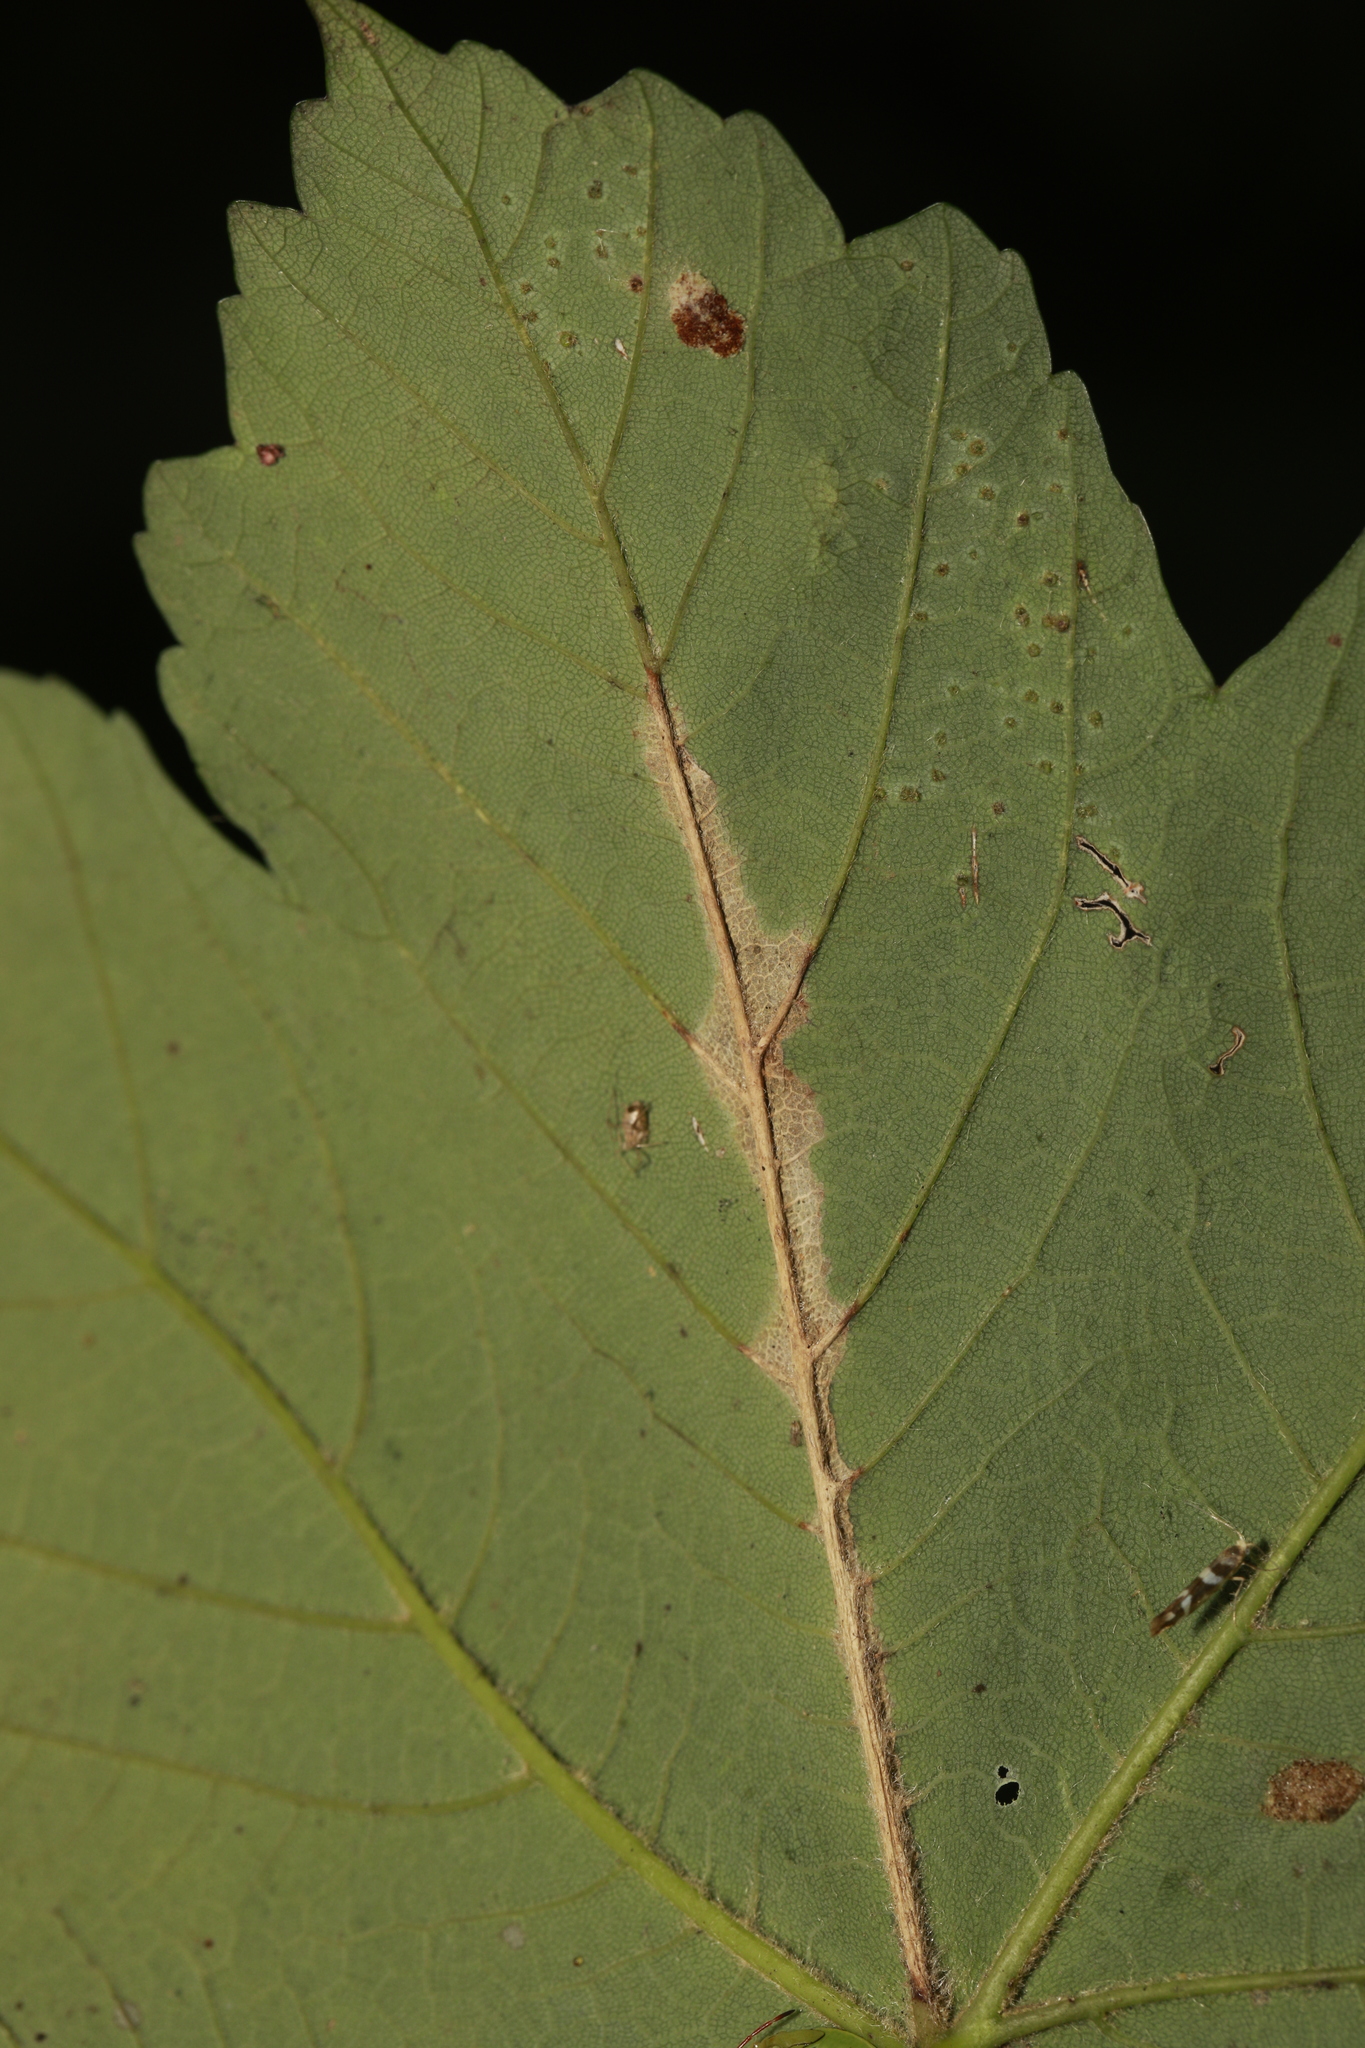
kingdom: Plantae
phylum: Tracheophyta
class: Magnoliopsida
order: Sapindales
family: Sapindaceae
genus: Acer
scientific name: Acer pseudoplatanus
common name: Sycamore
